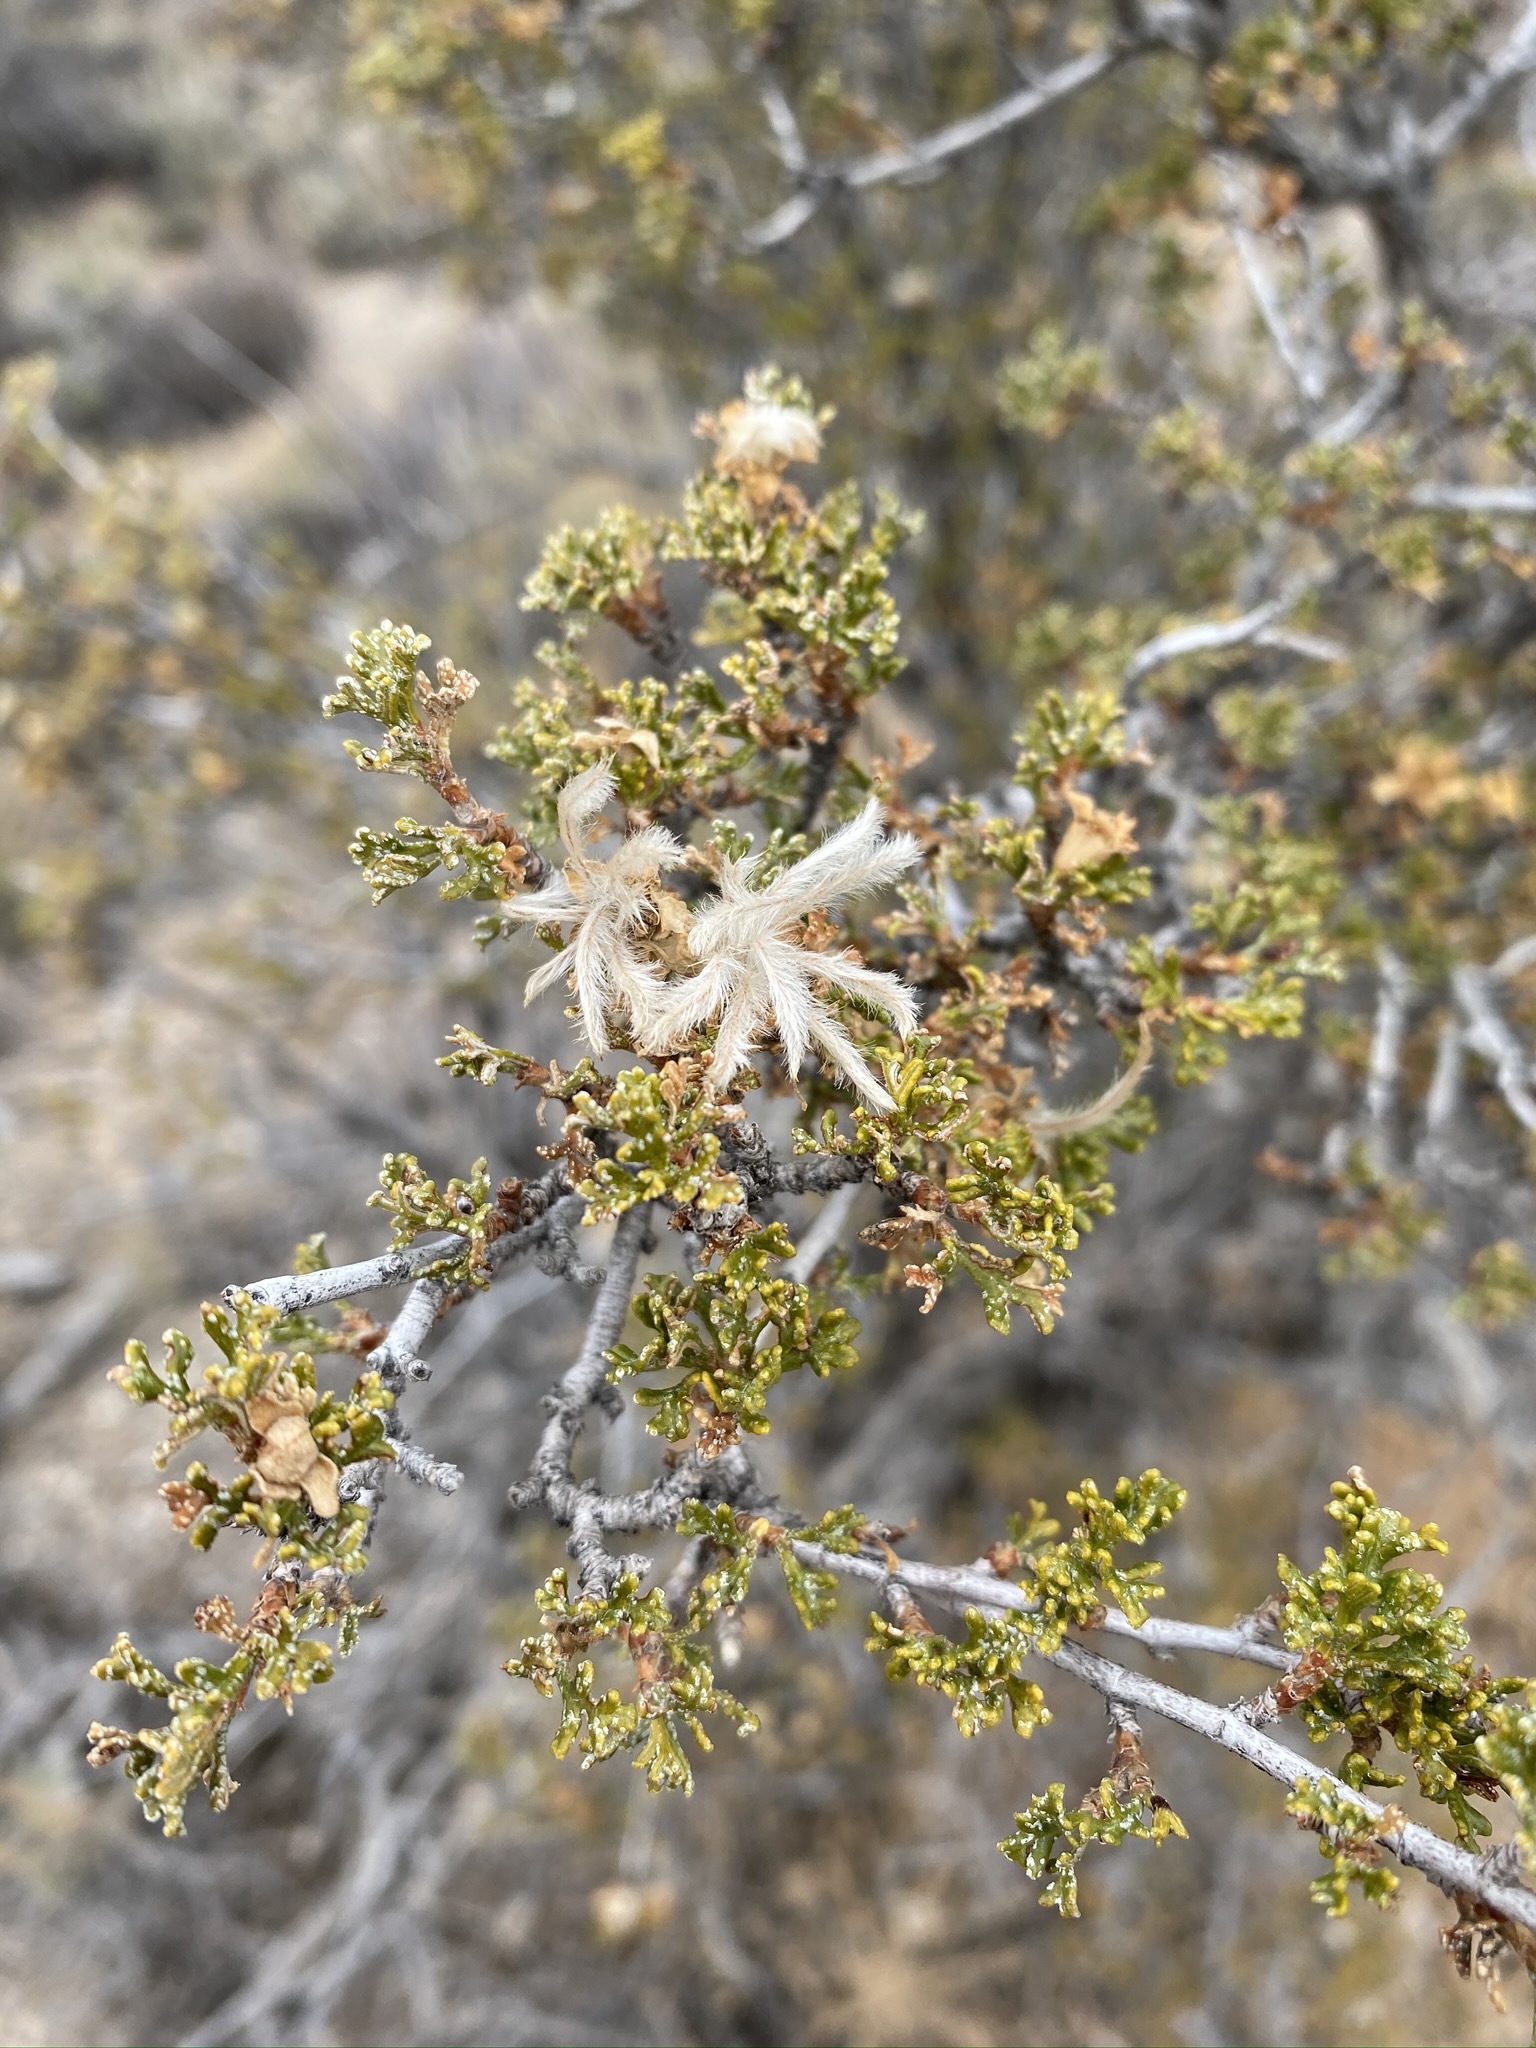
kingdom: Plantae
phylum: Tracheophyta
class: Magnoliopsida
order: Rosales
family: Rosaceae
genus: Fallugia
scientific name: Fallugia paradoxa
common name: Apache-plume
